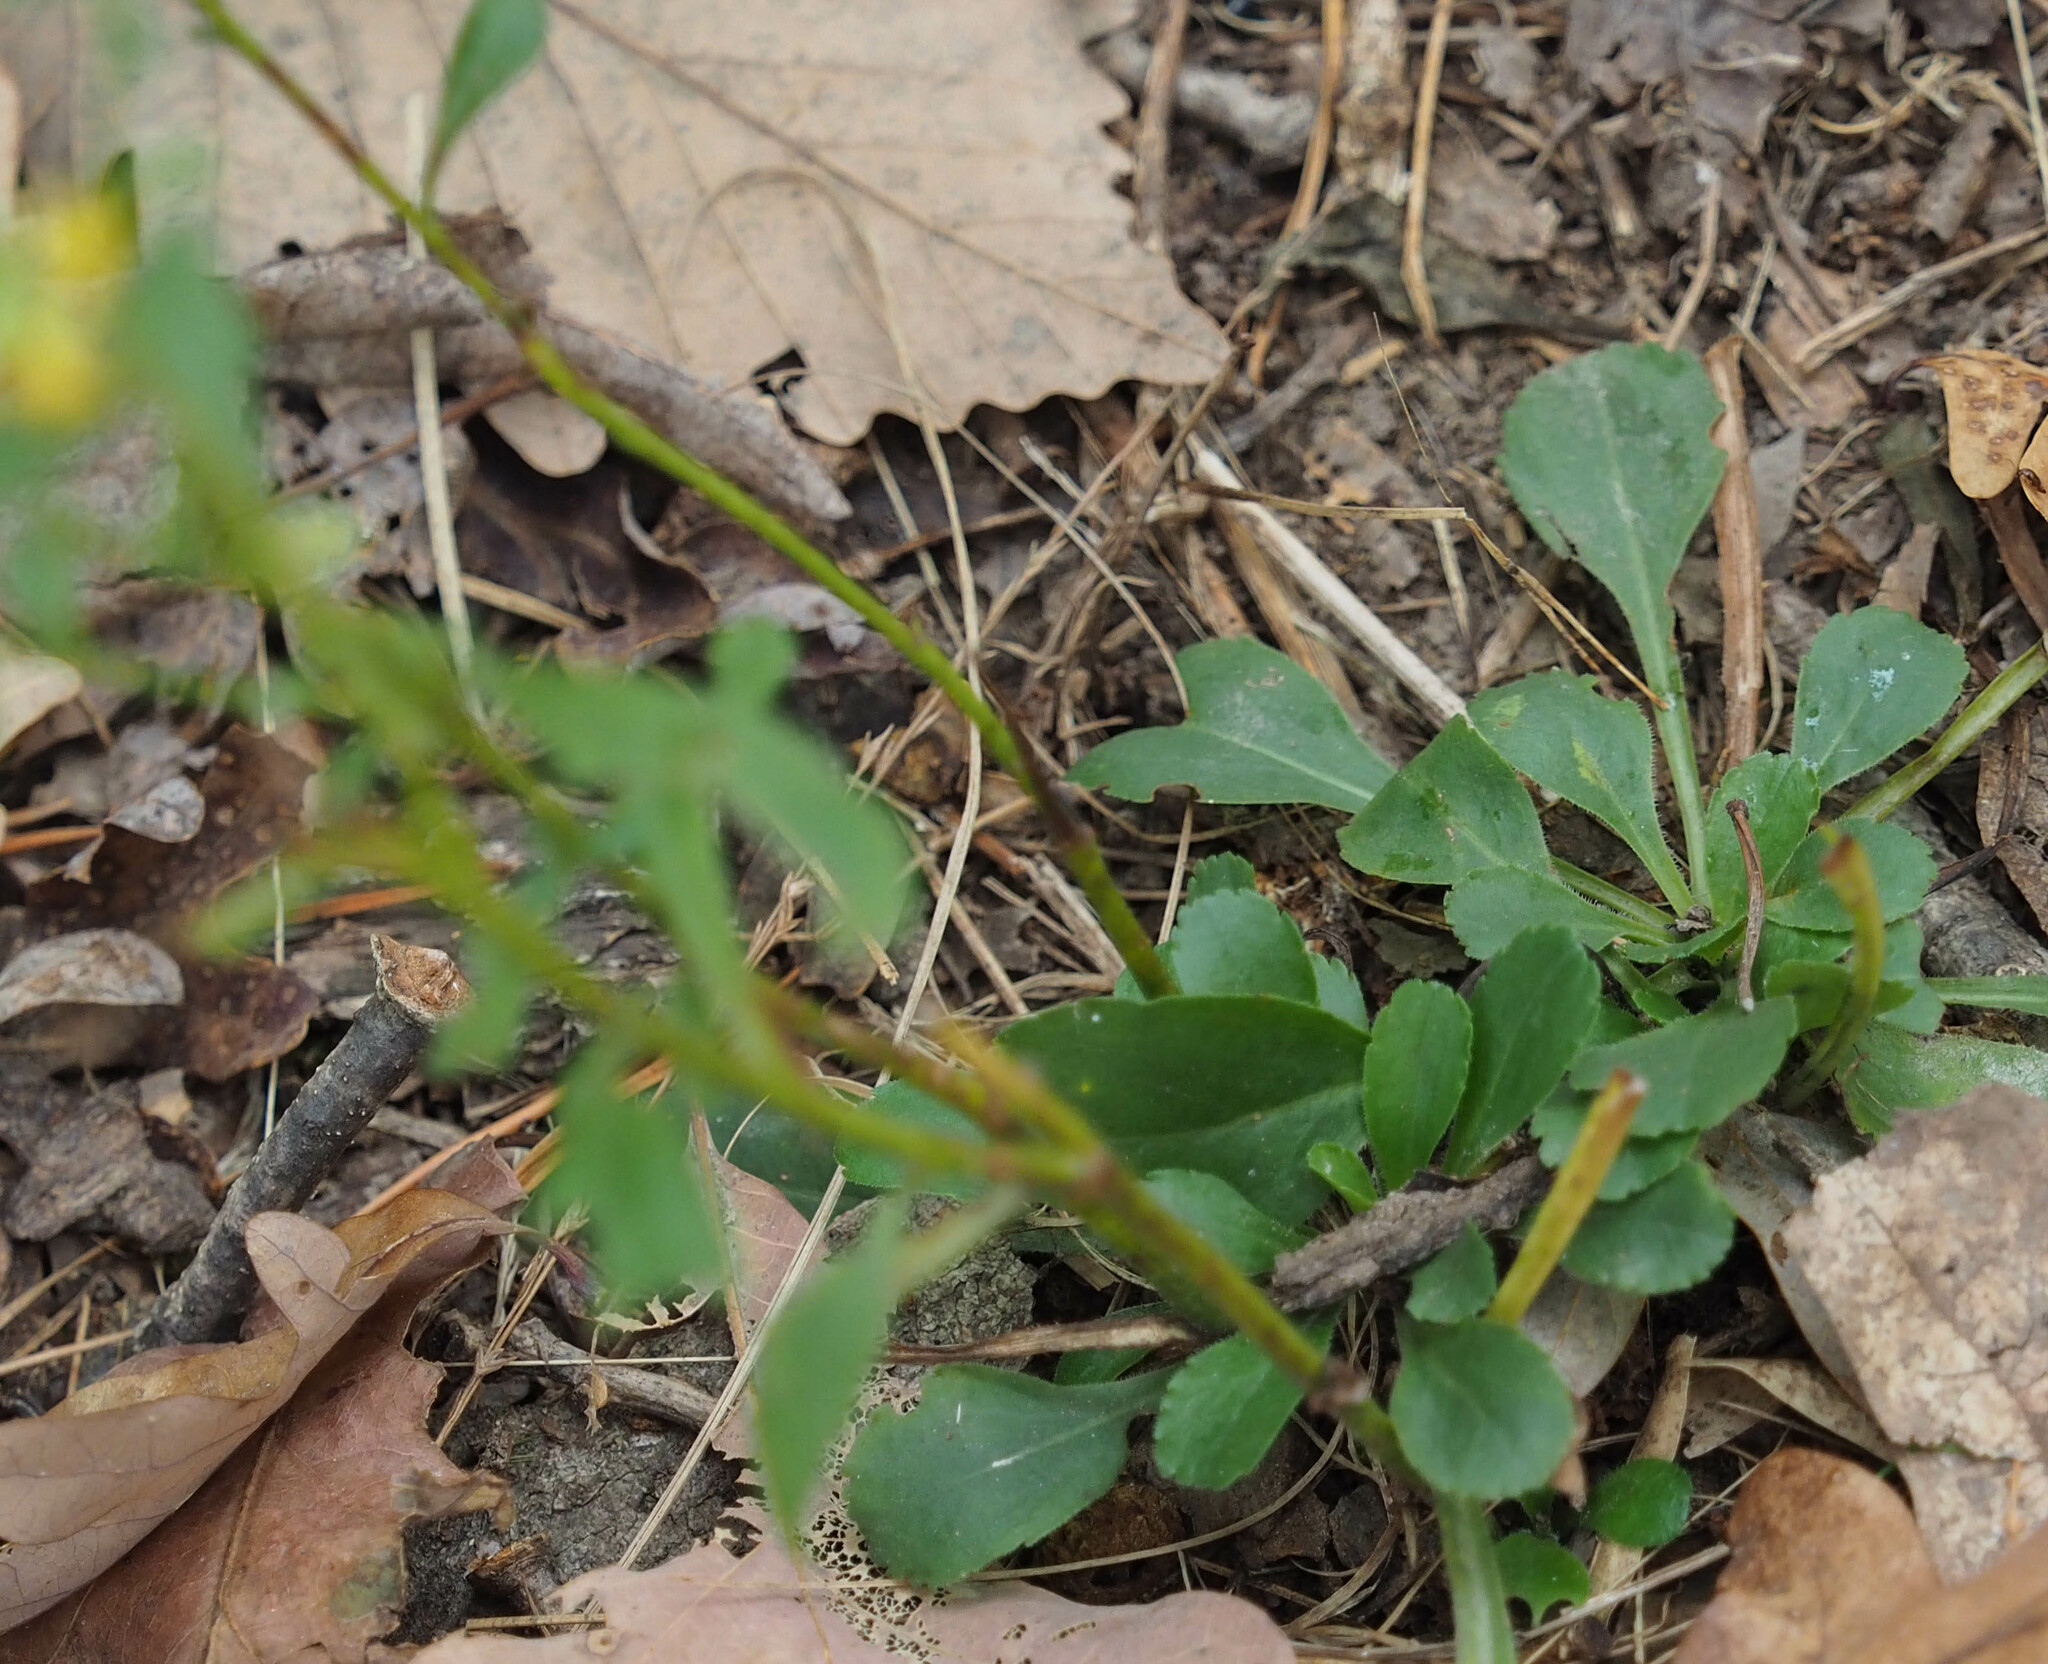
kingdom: Plantae
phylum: Tracheophyta
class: Magnoliopsida
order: Asterales
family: Asteraceae
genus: Solidago
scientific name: Solidago erecta
